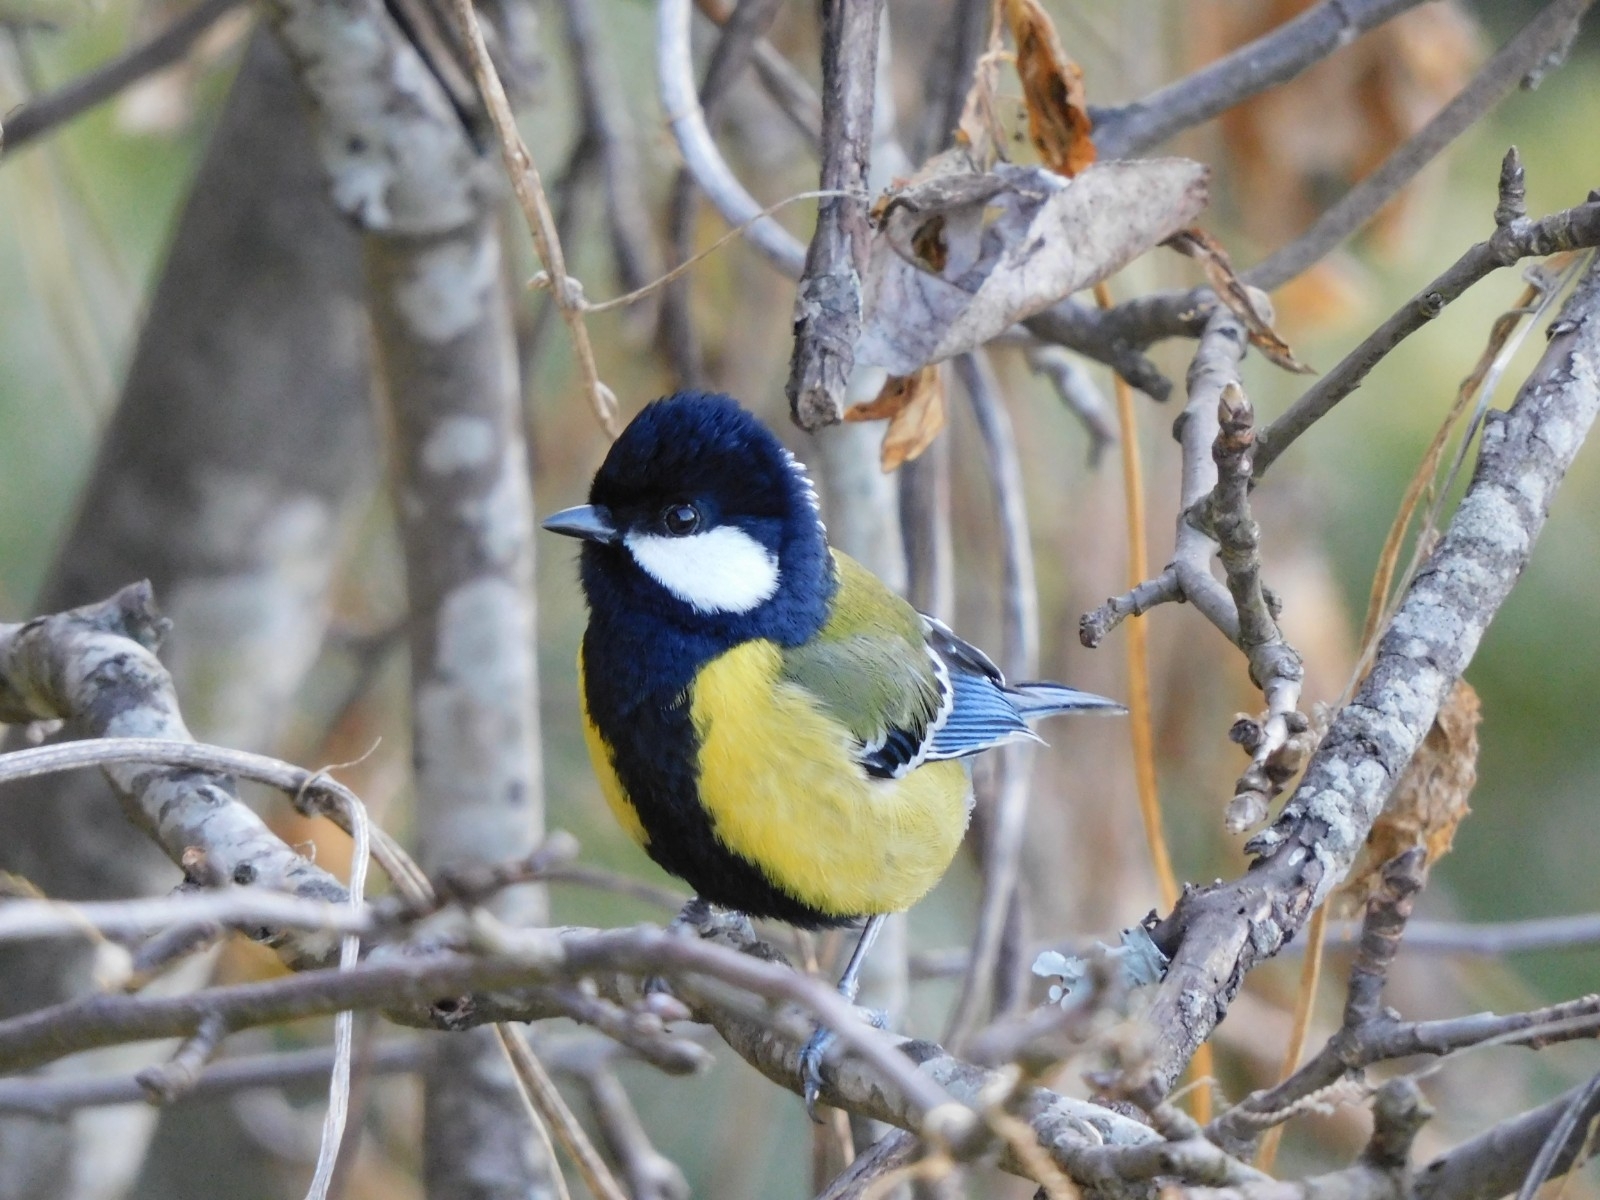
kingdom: Animalia
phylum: Chordata
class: Aves
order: Passeriformes
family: Paridae
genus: Parus
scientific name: Parus monticolus
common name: Green-backed tit
